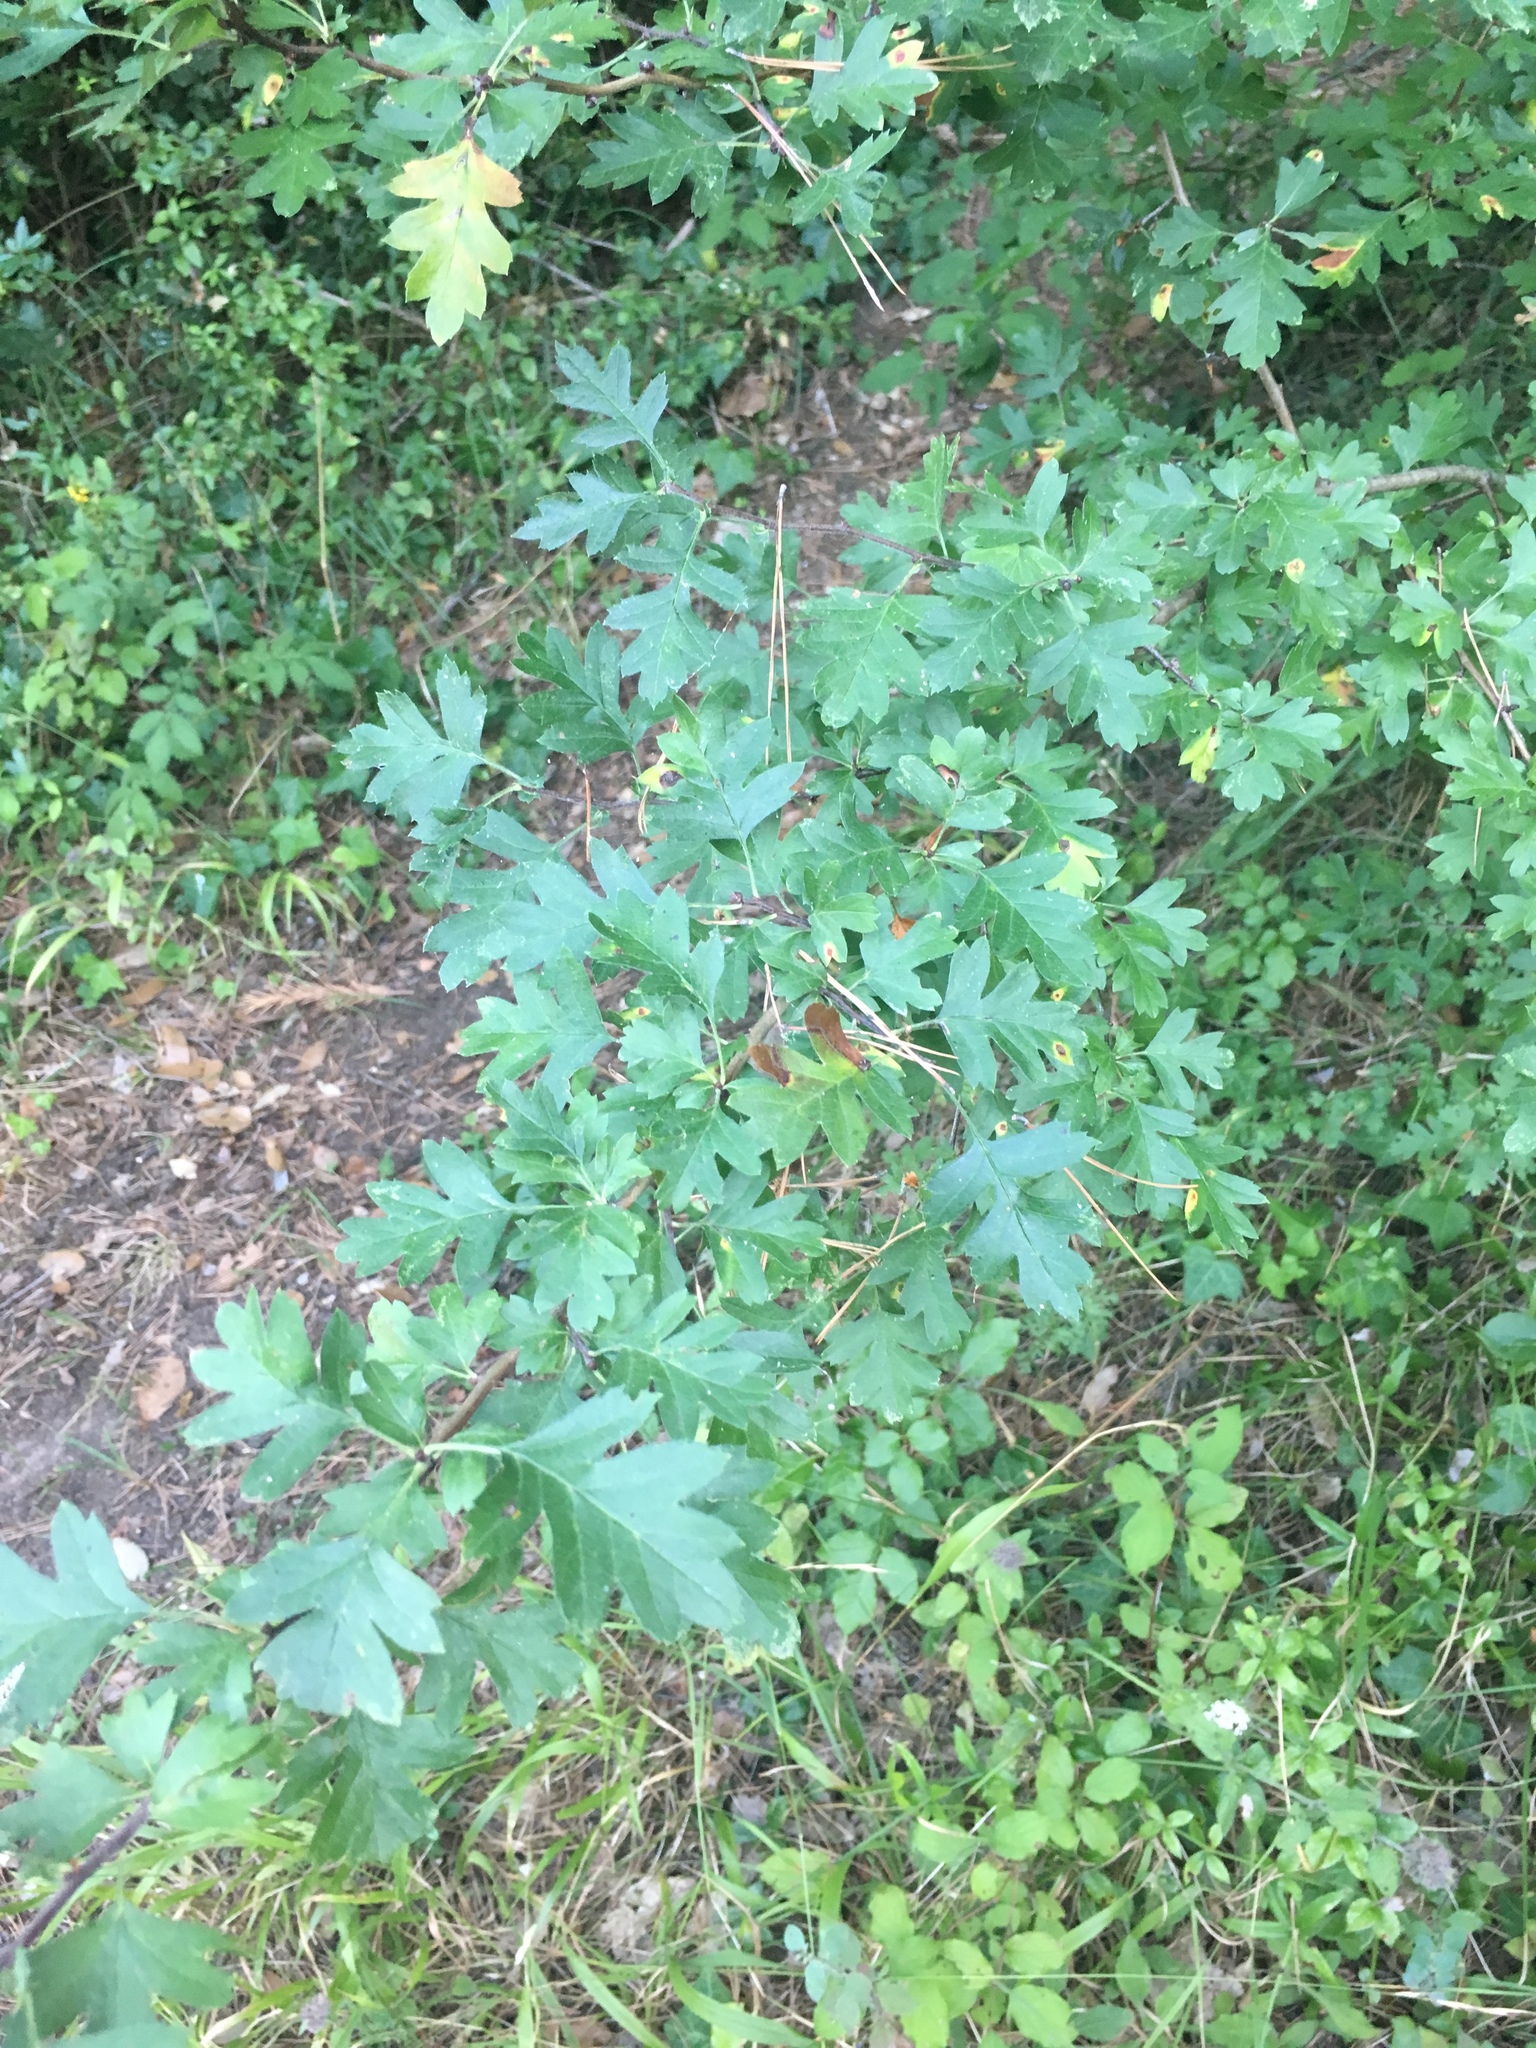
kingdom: Plantae
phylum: Tracheophyta
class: Magnoliopsida
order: Rosales
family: Rosaceae
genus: Crataegus
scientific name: Crataegus monogyna
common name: Hawthorn
